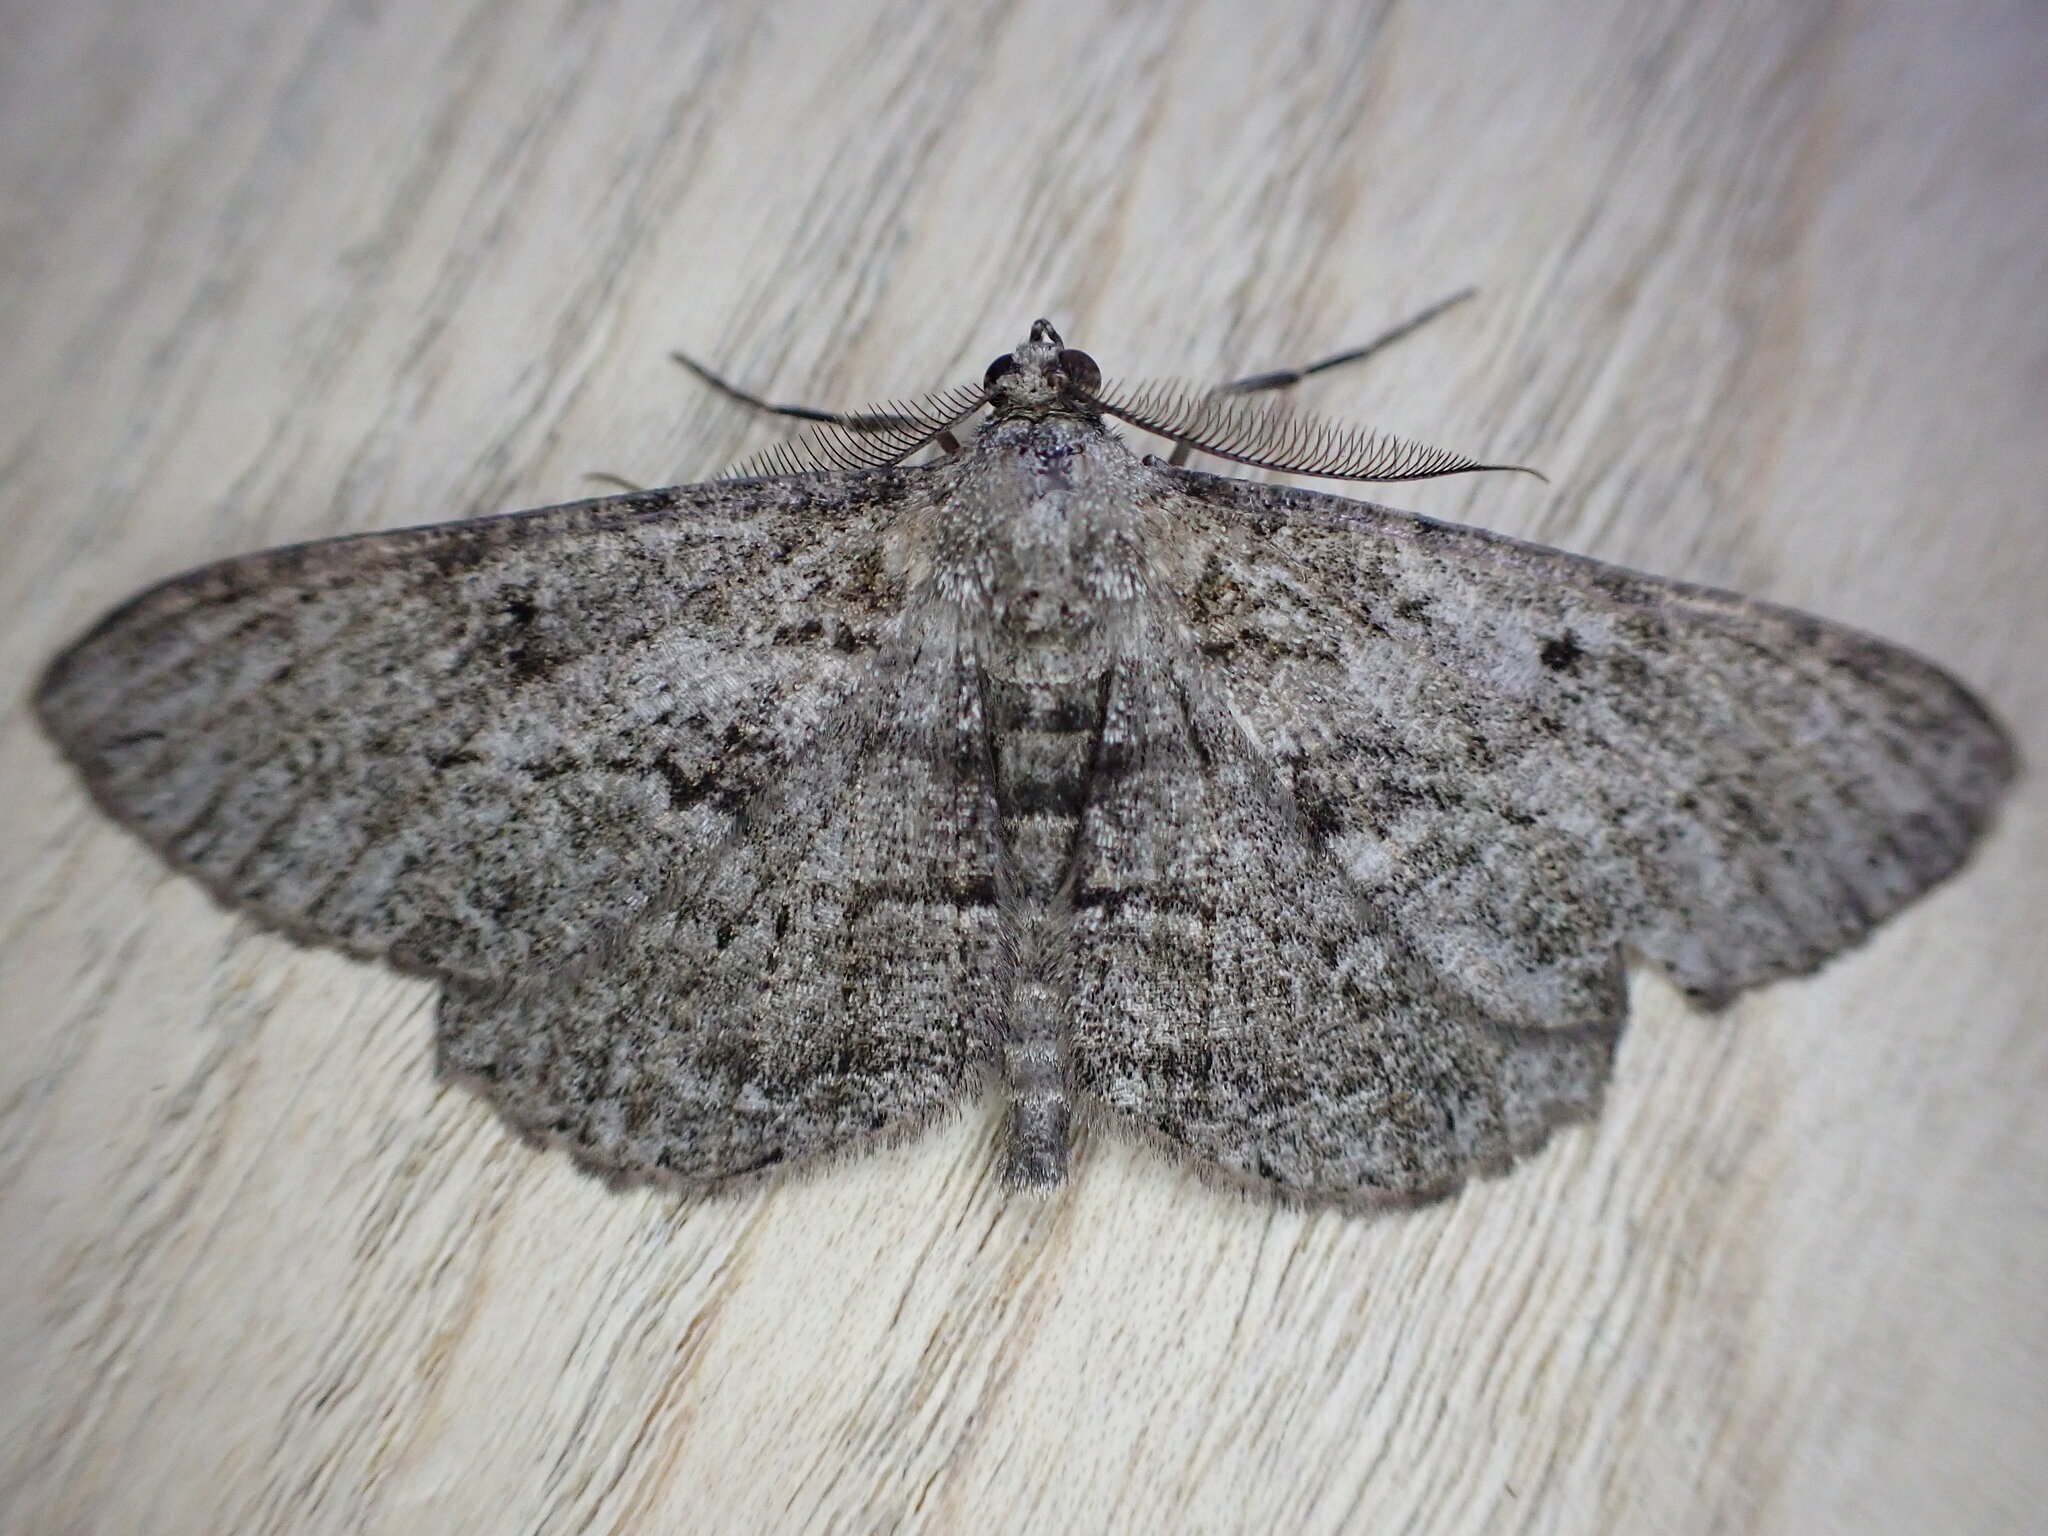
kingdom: Animalia
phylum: Arthropoda
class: Insecta
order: Lepidoptera
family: Geometridae
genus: Peribatodes
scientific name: Peribatodes rhomboidaria
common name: Willow beauty
